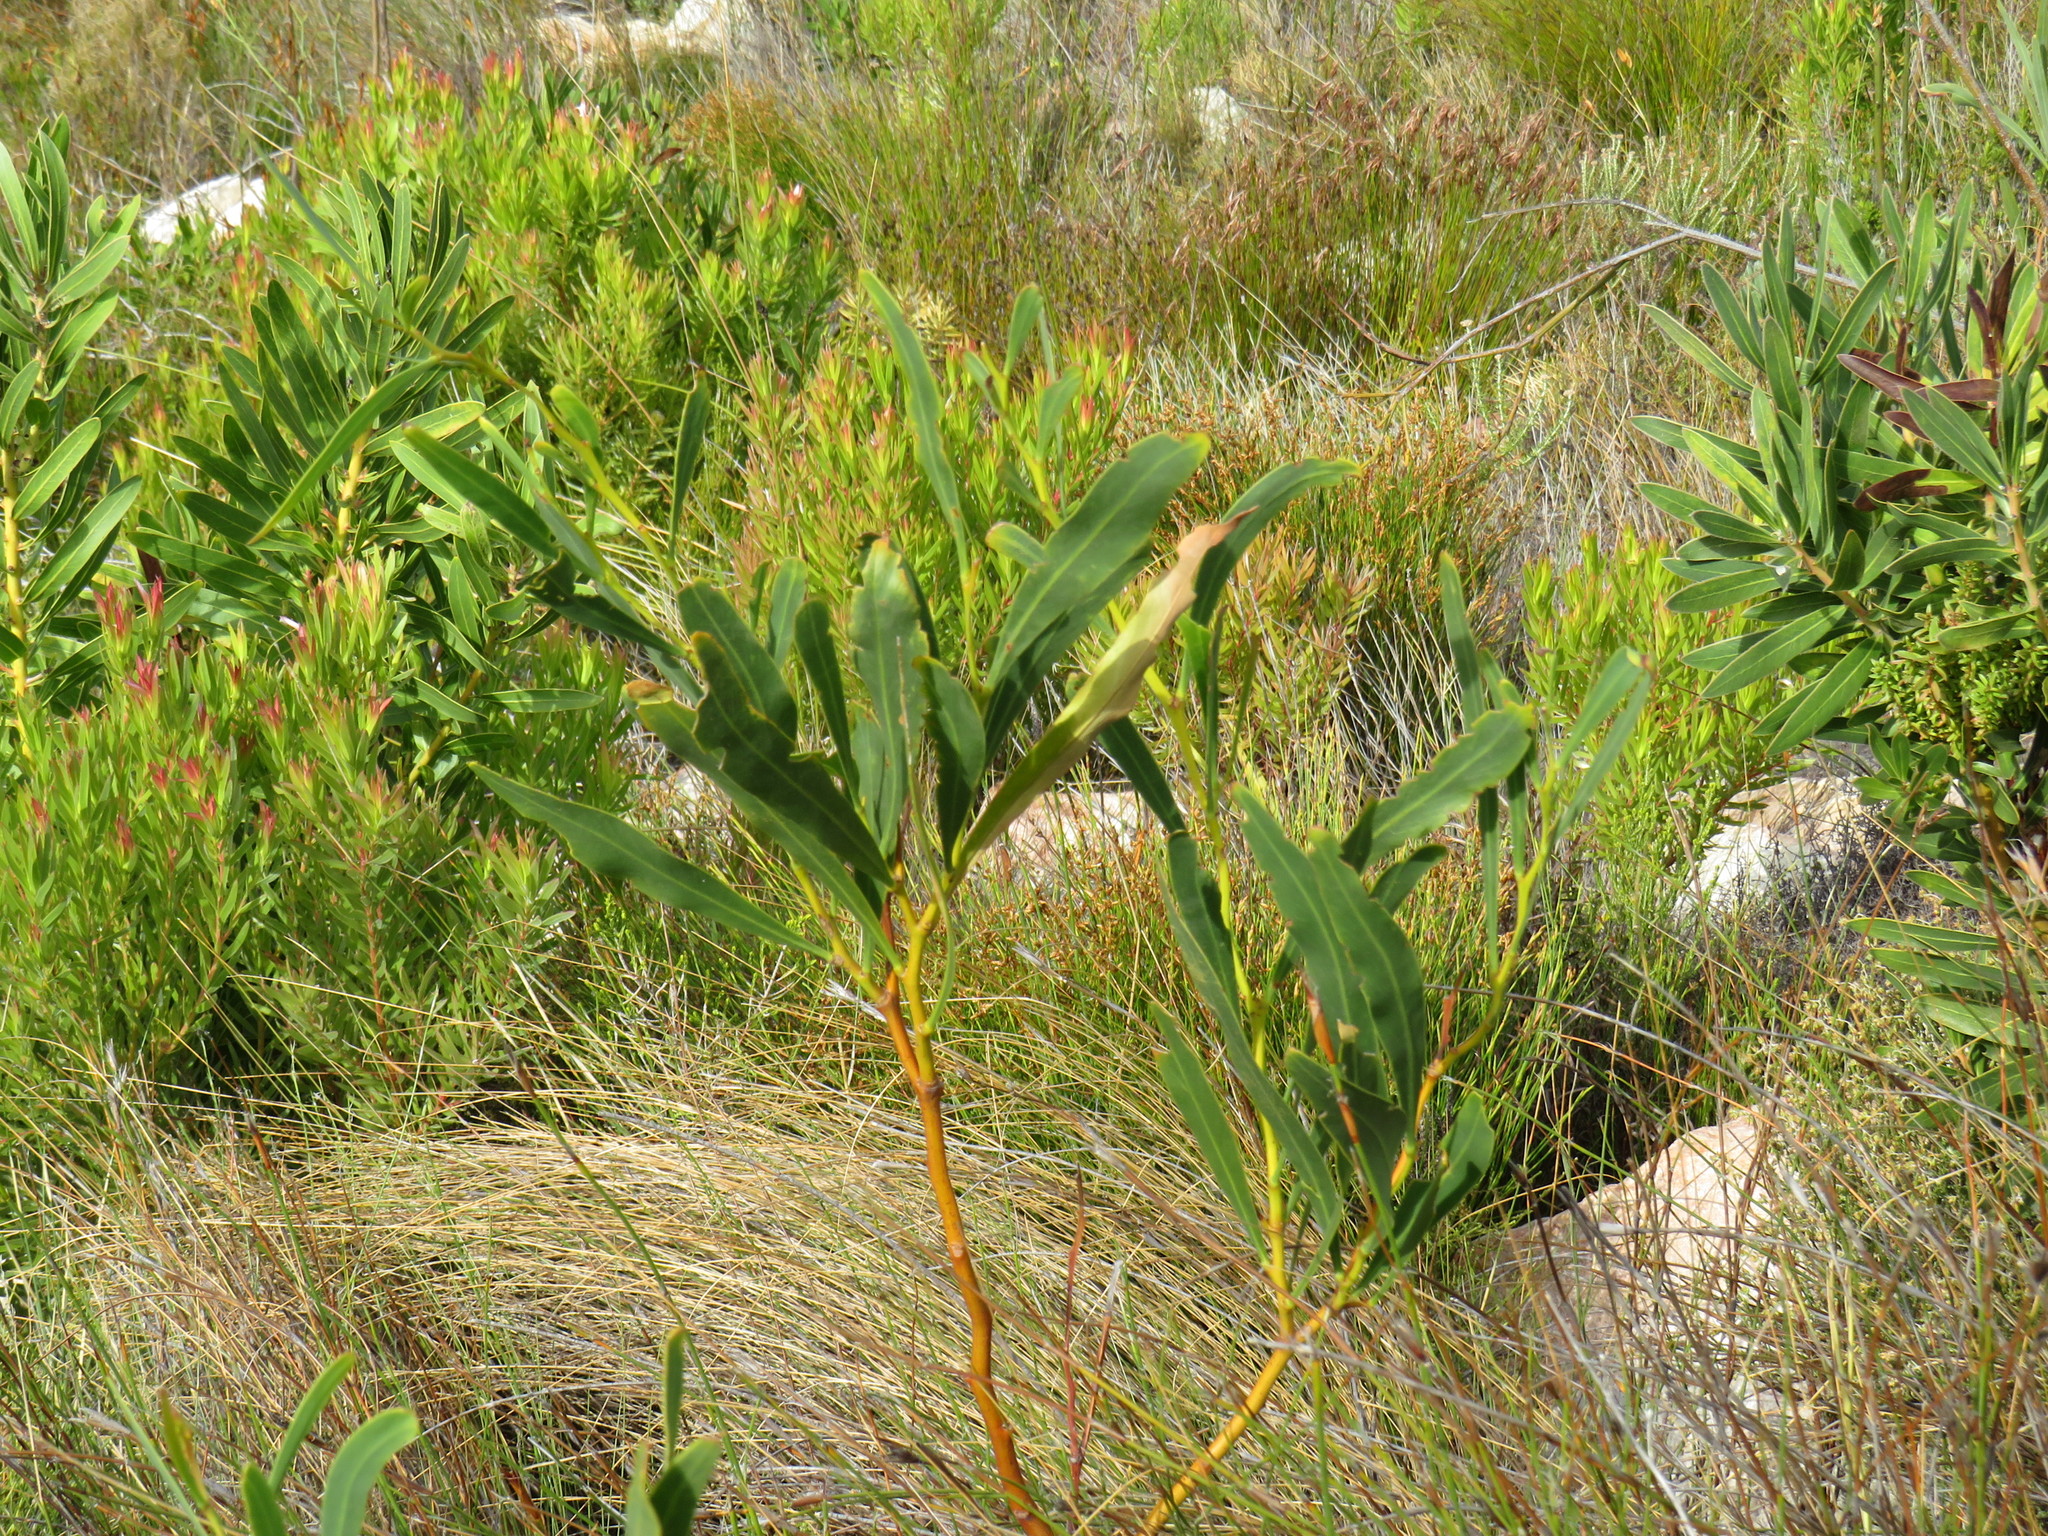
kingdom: Plantae
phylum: Tracheophyta
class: Magnoliopsida
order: Fabales
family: Fabaceae
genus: Acacia
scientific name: Acacia saligna
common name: Orange wattle
